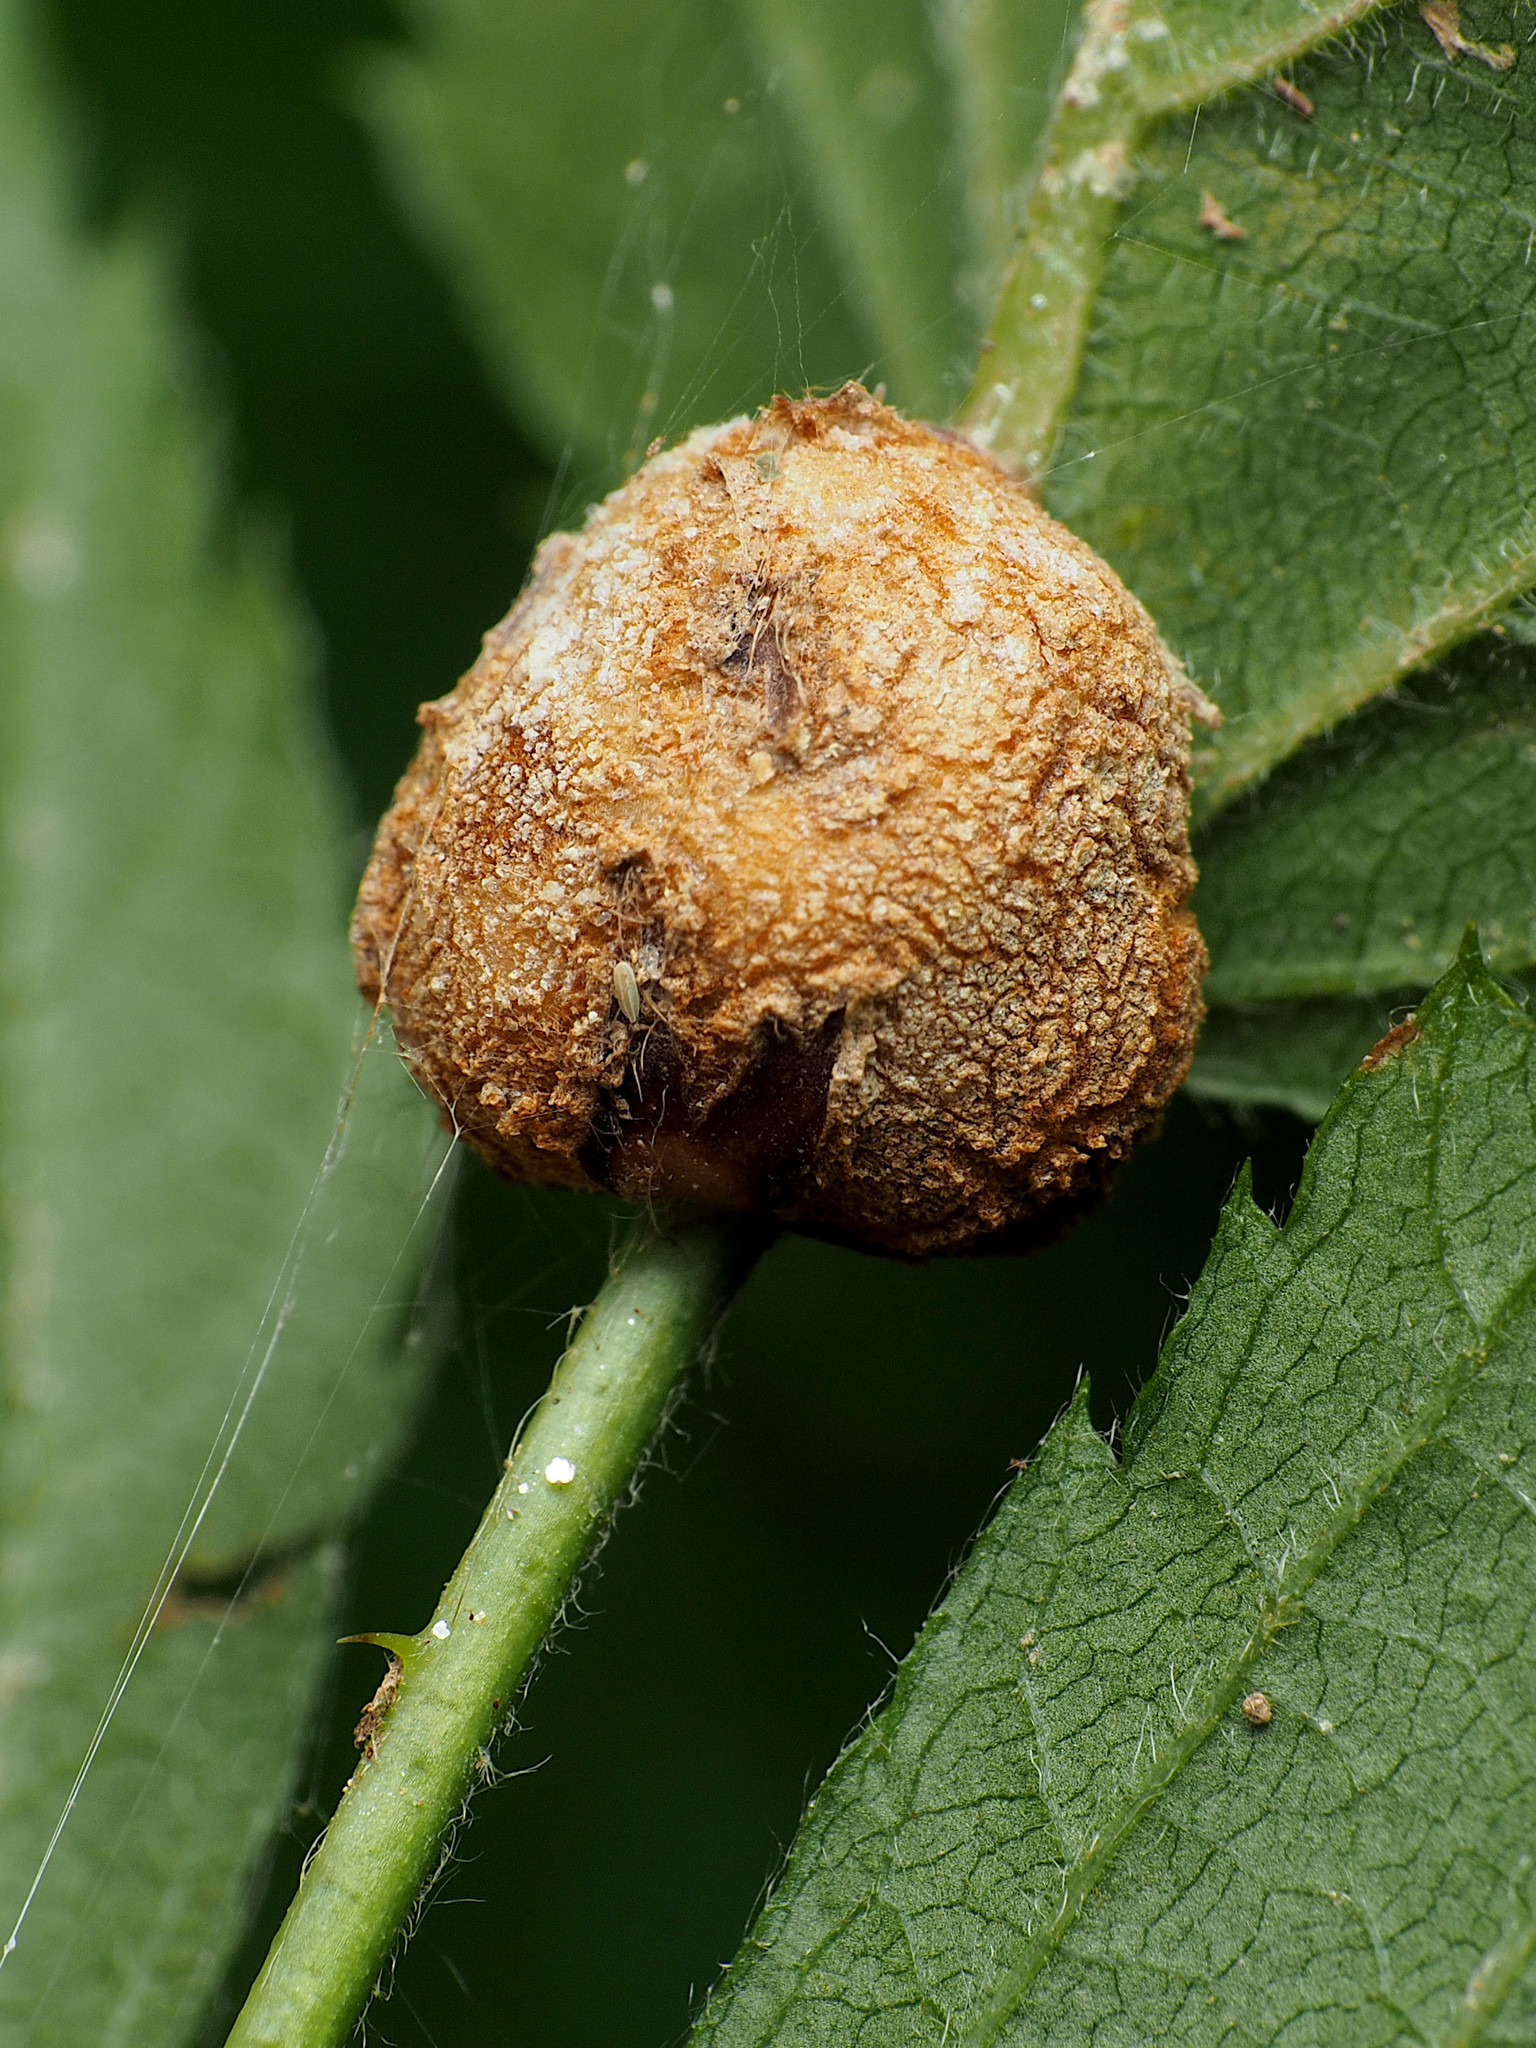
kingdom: Animalia
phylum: Arthropoda
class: Insecta
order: Diptera
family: Cecidomyiidae
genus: Neolasioptera
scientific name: Neolasioptera farinosa
